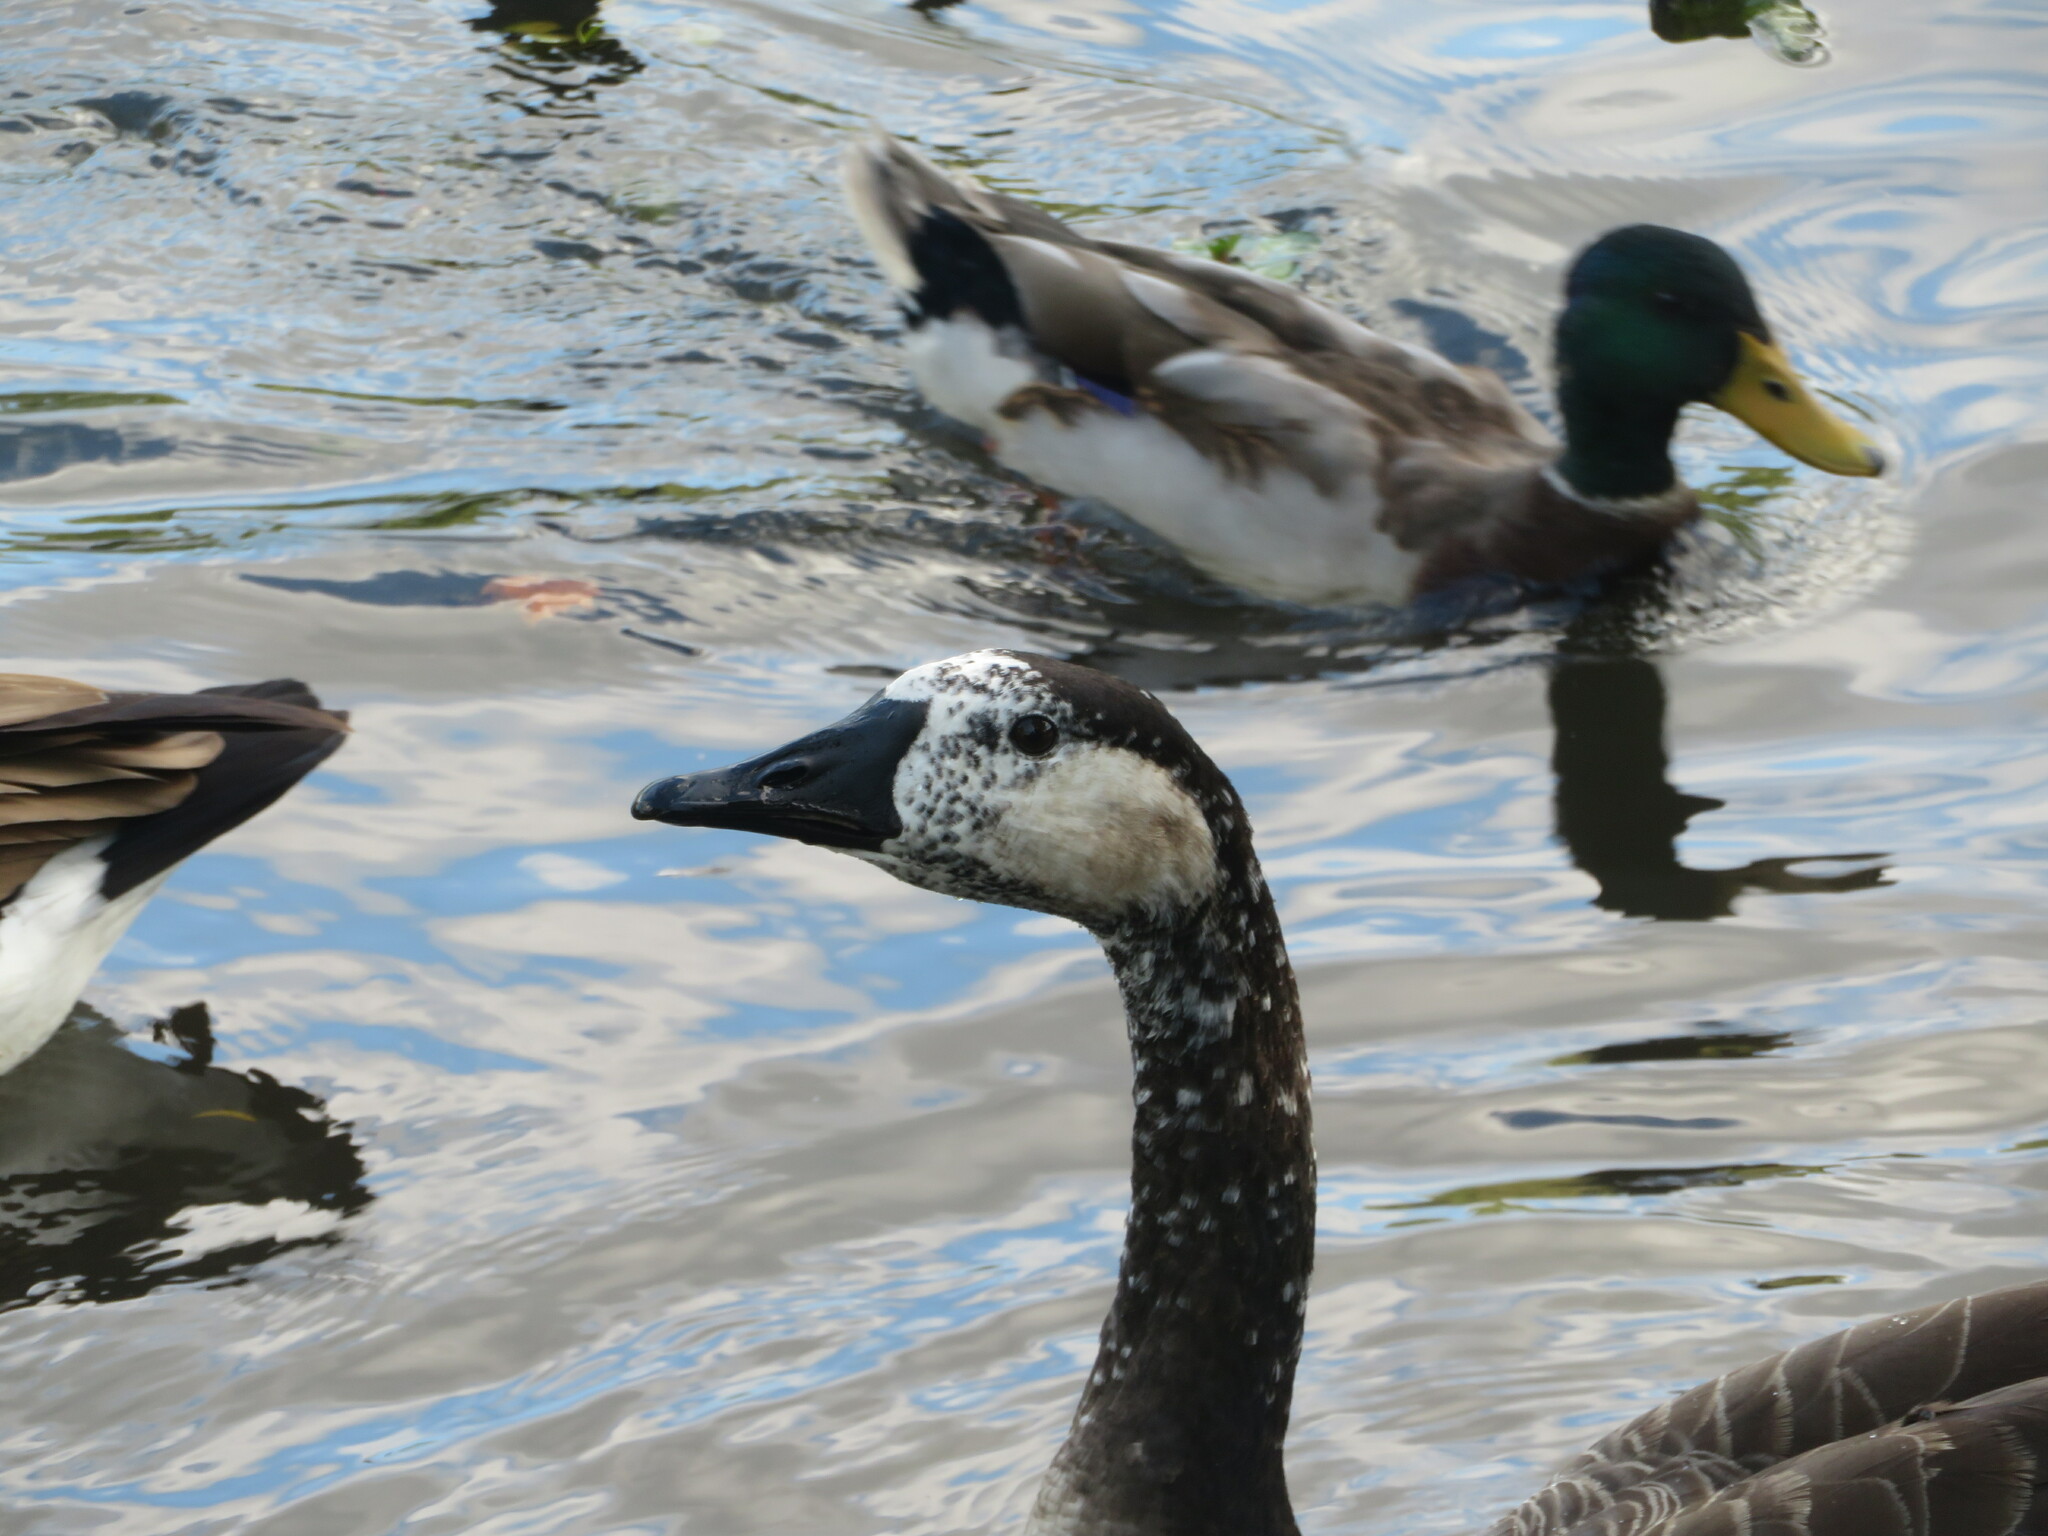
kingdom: Animalia
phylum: Chordata
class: Aves
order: Anseriformes
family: Anatidae
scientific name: Anatidae
